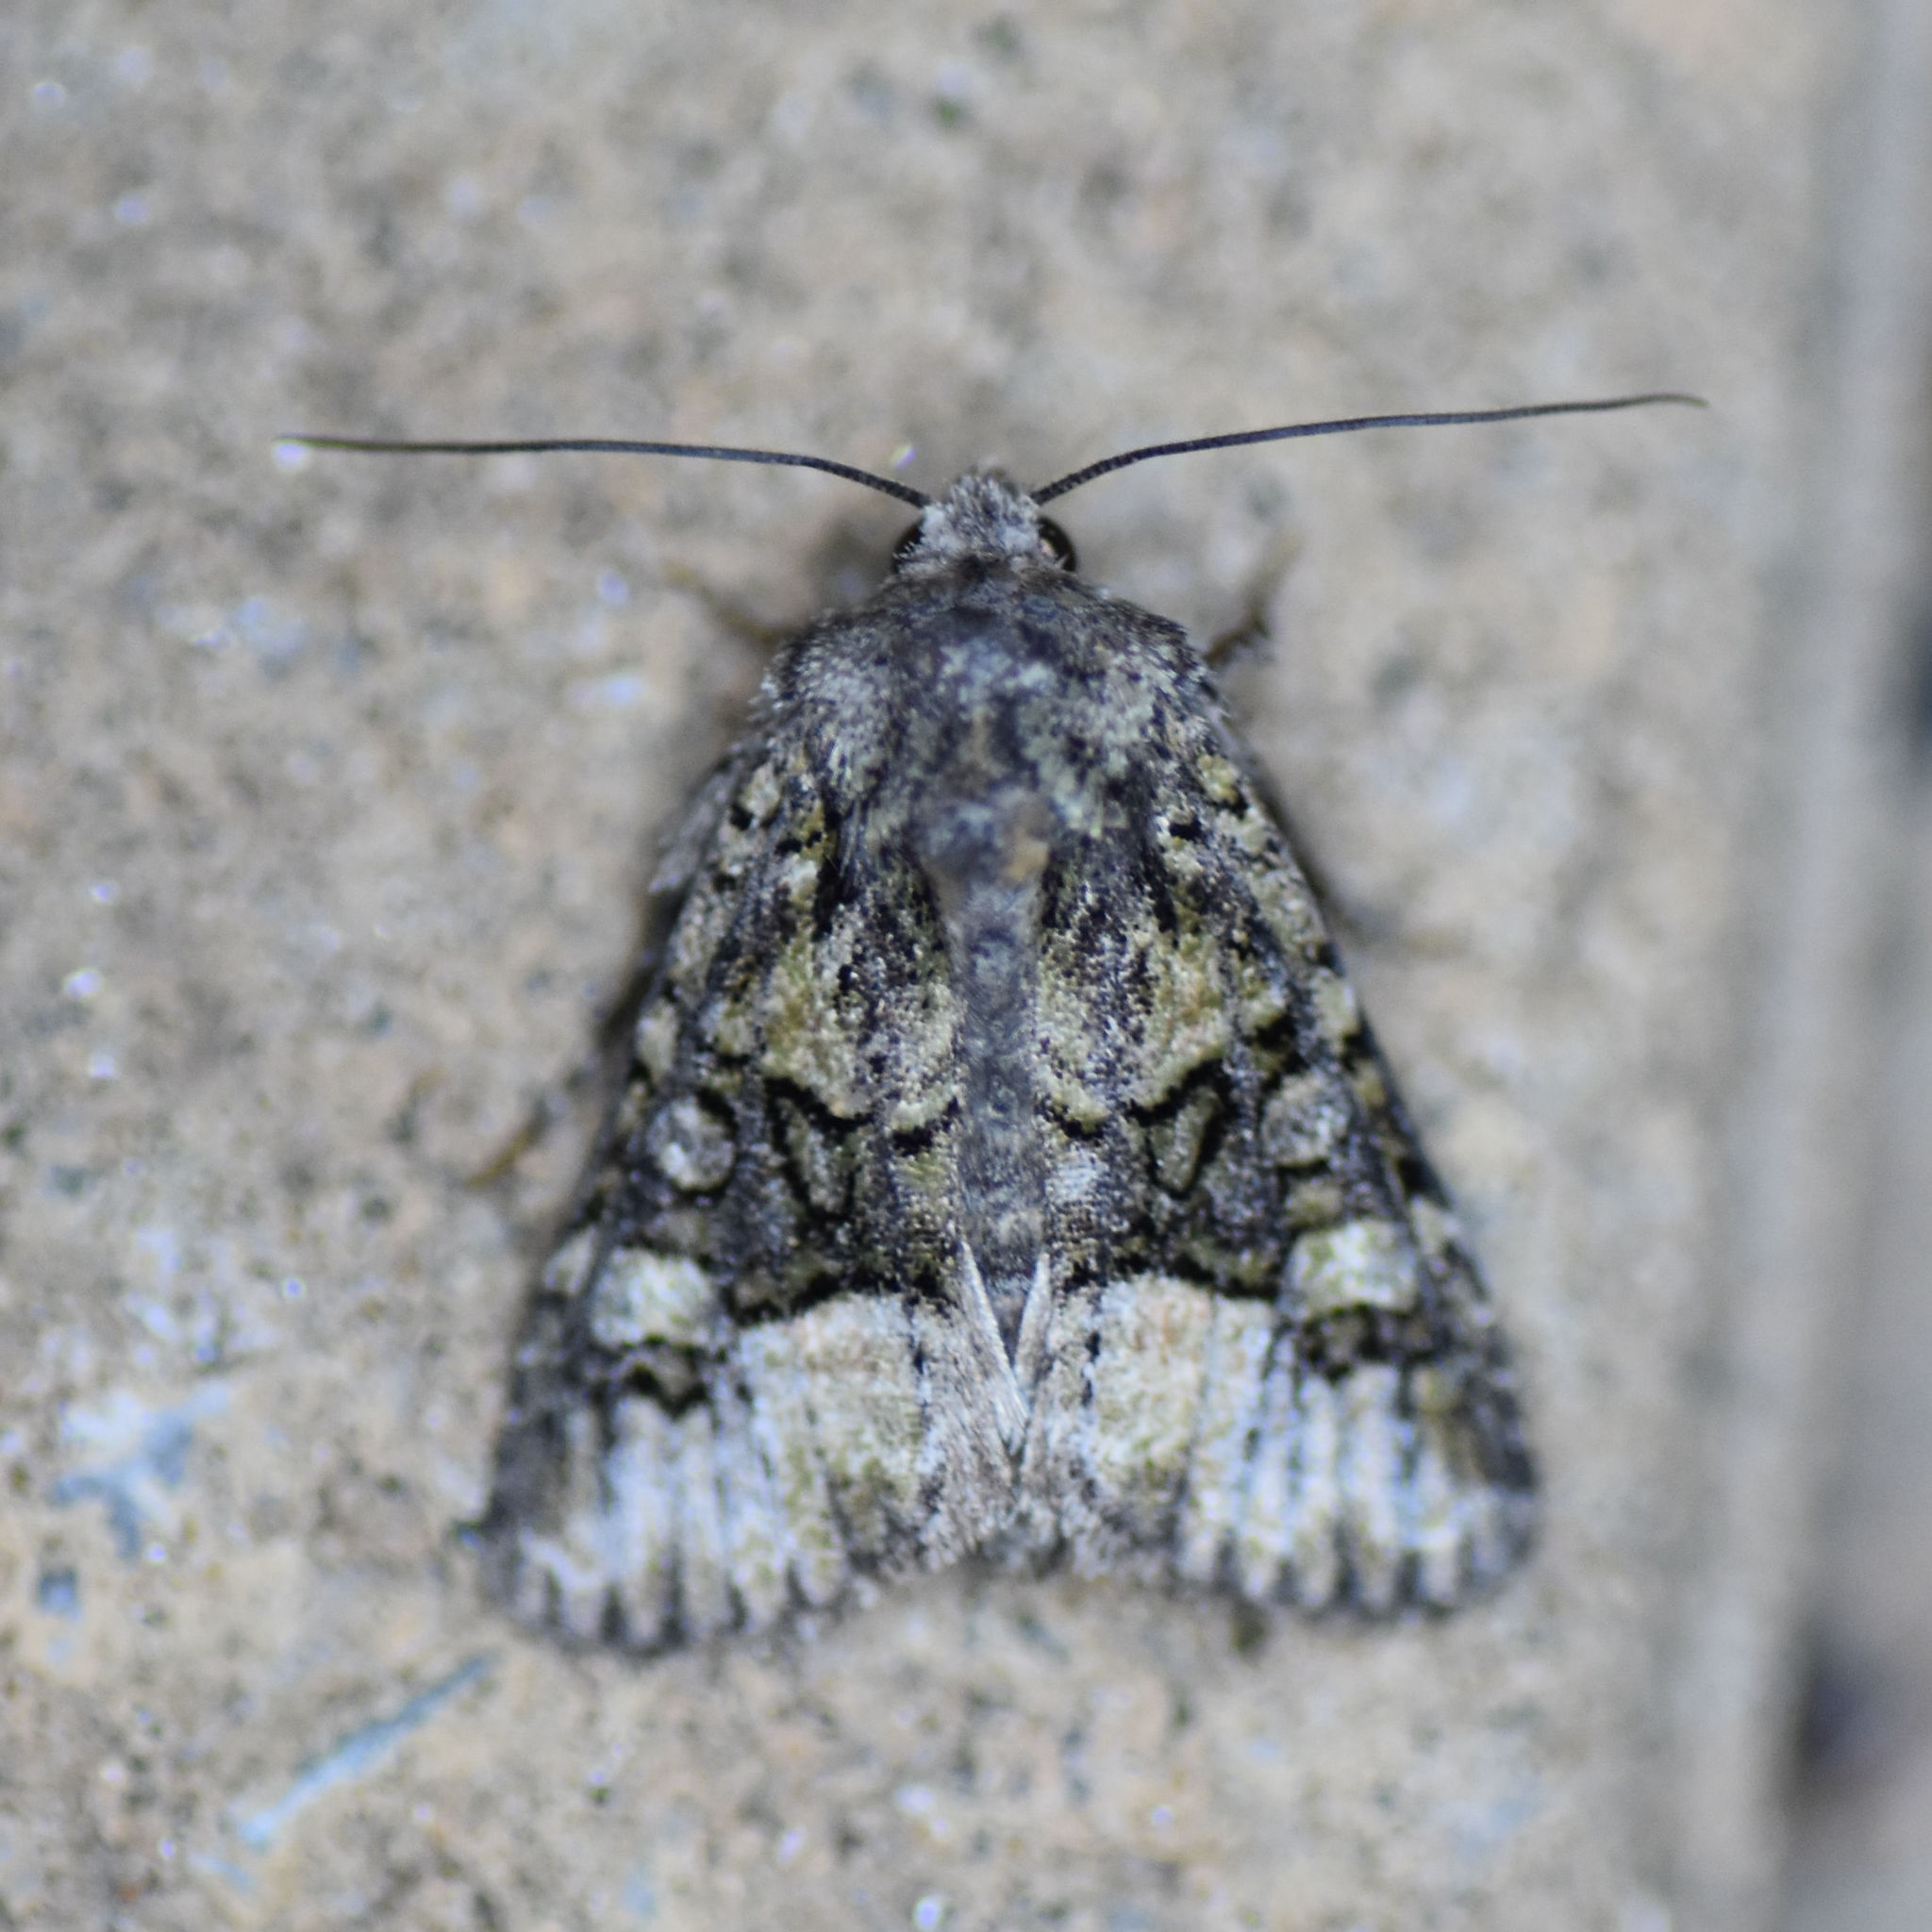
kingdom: Animalia
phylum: Arthropoda
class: Insecta
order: Lepidoptera
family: Noctuidae
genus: Lacinipolia
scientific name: Lacinipolia olivacea
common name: Olive arches moth
